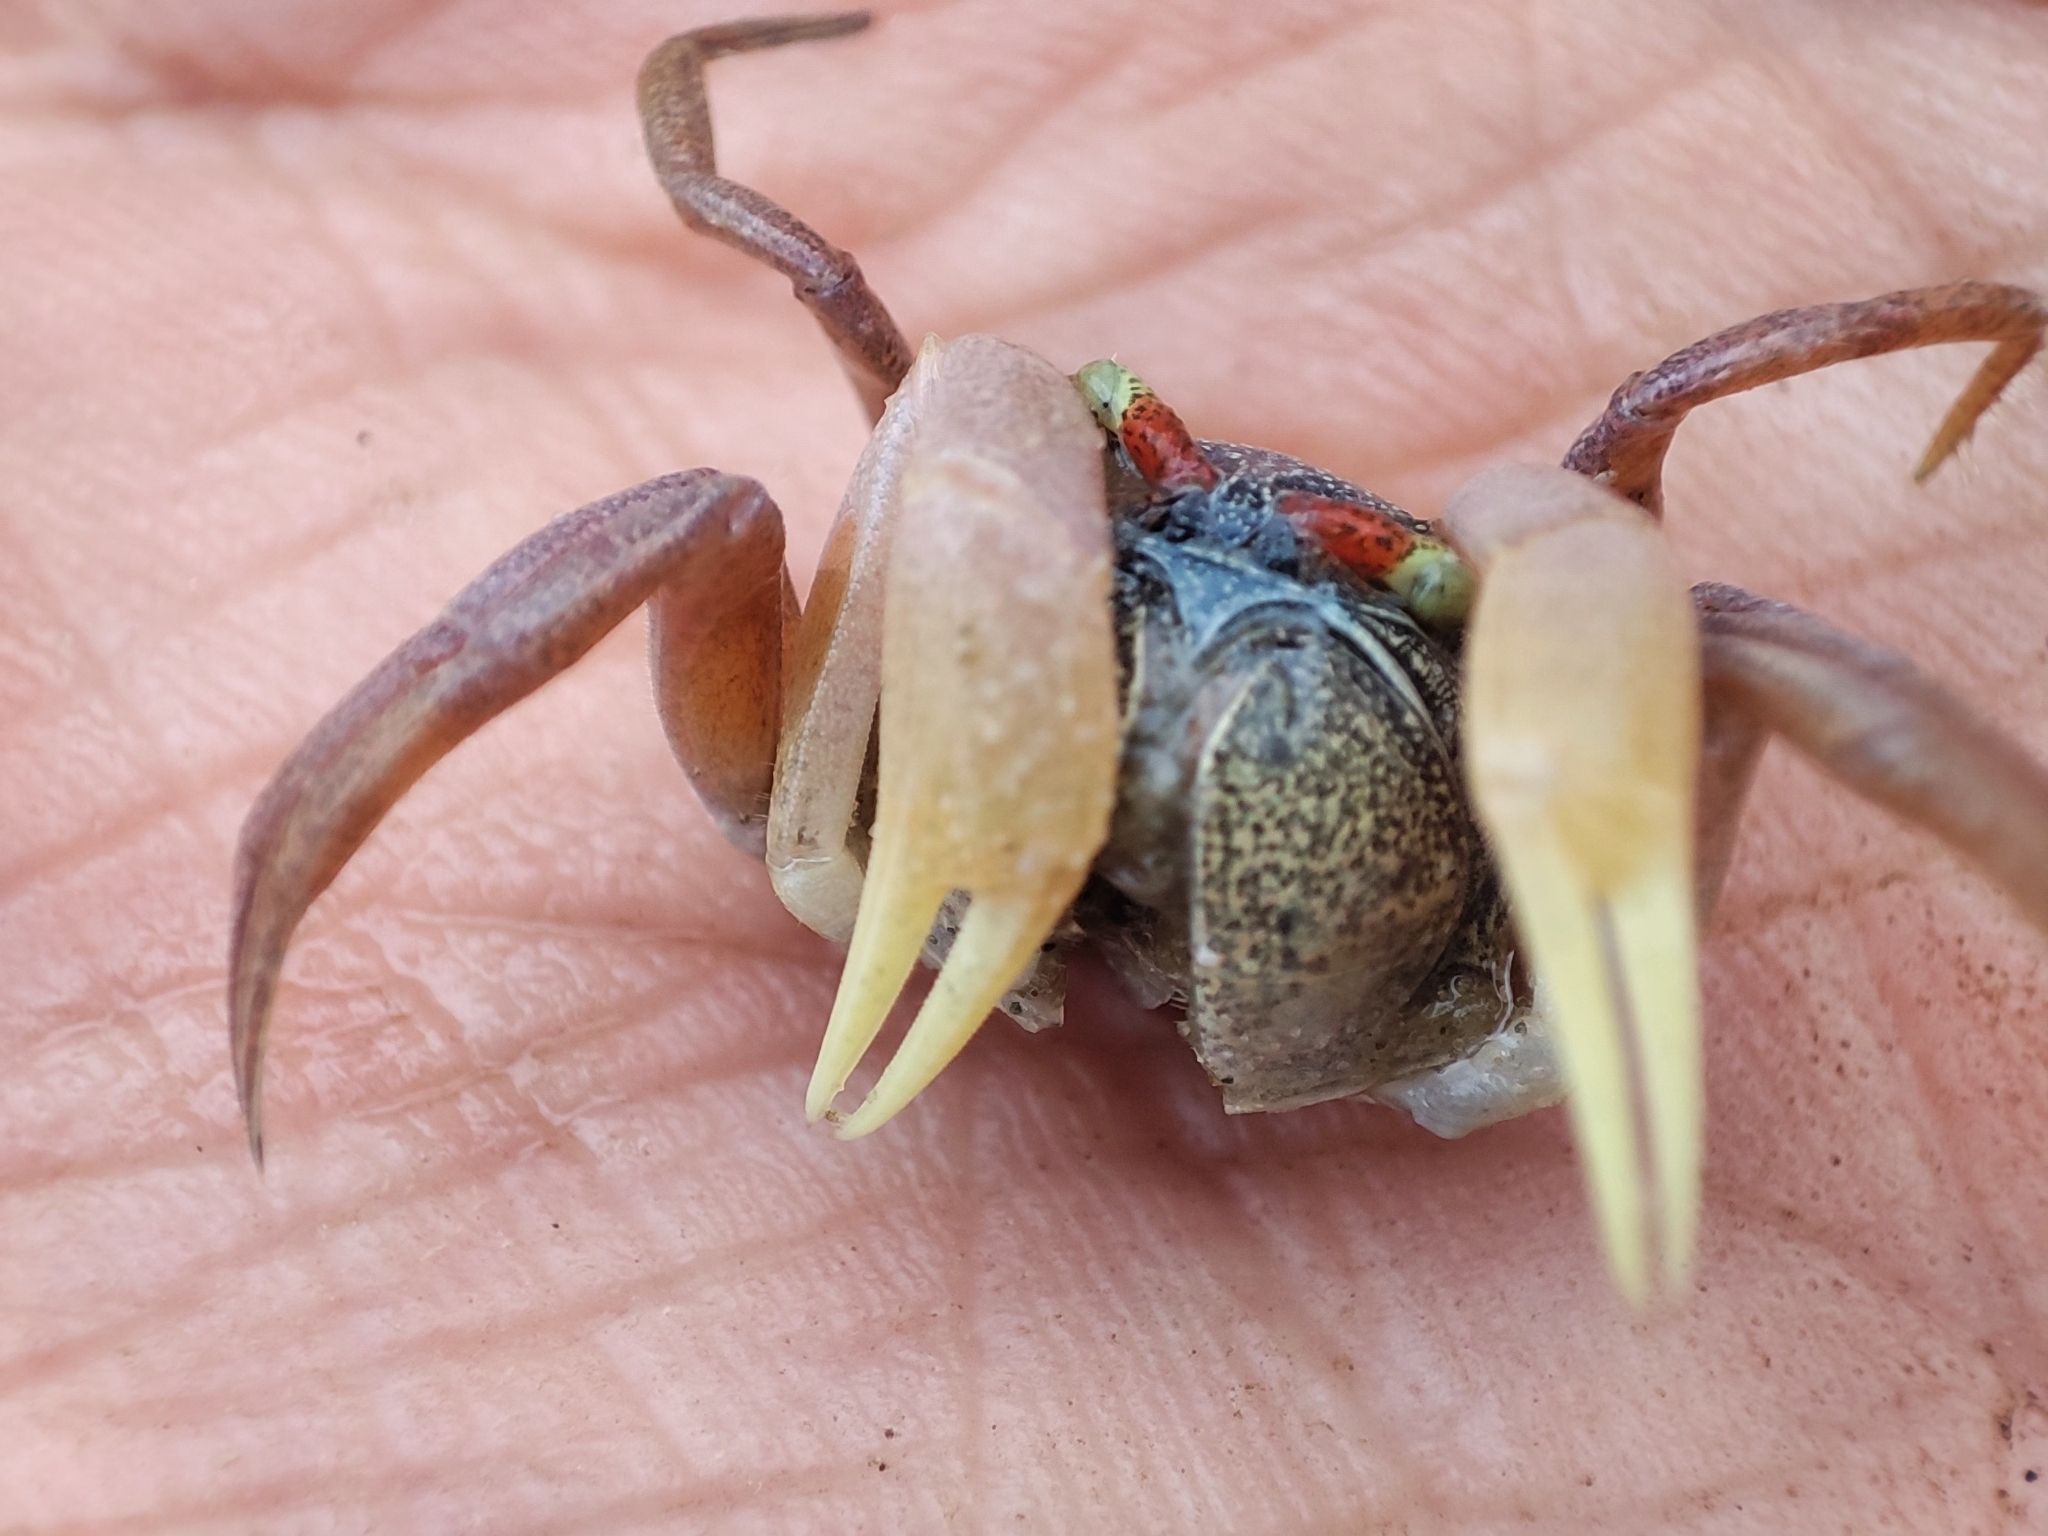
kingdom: Animalia
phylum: Arthropoda
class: Malacostraca
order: Decapoda
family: Dotillidae
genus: Dotilla
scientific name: Dotilla myctiroides
